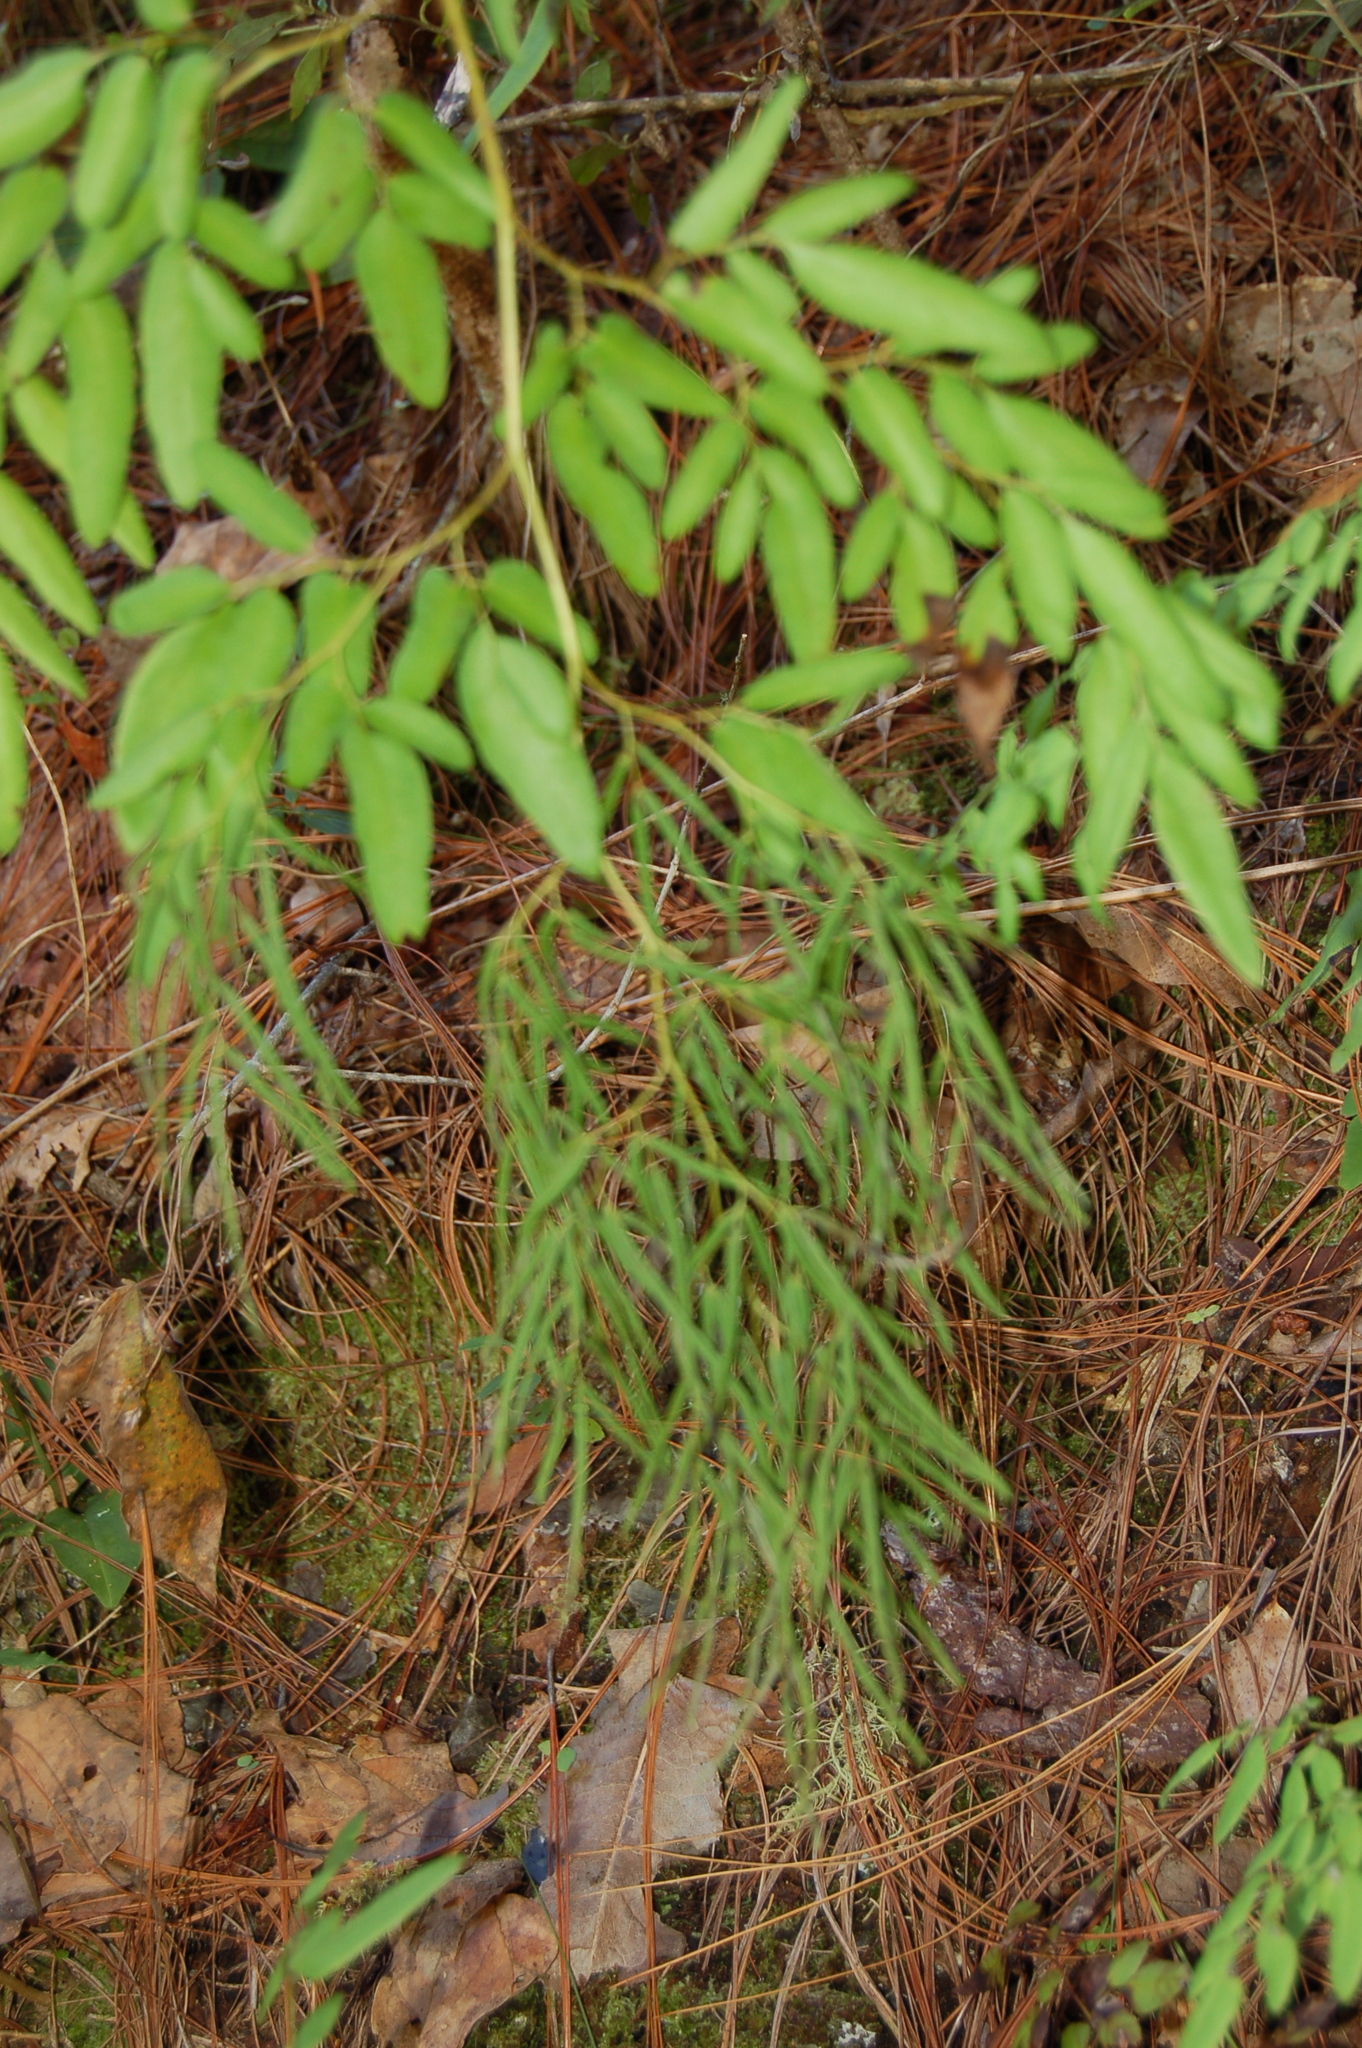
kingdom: Plantae
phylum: Tracheophyta
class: Polypodiopsida
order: Polypodiales
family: Pteridaceae
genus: Llavea
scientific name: Llavea cordifolia
